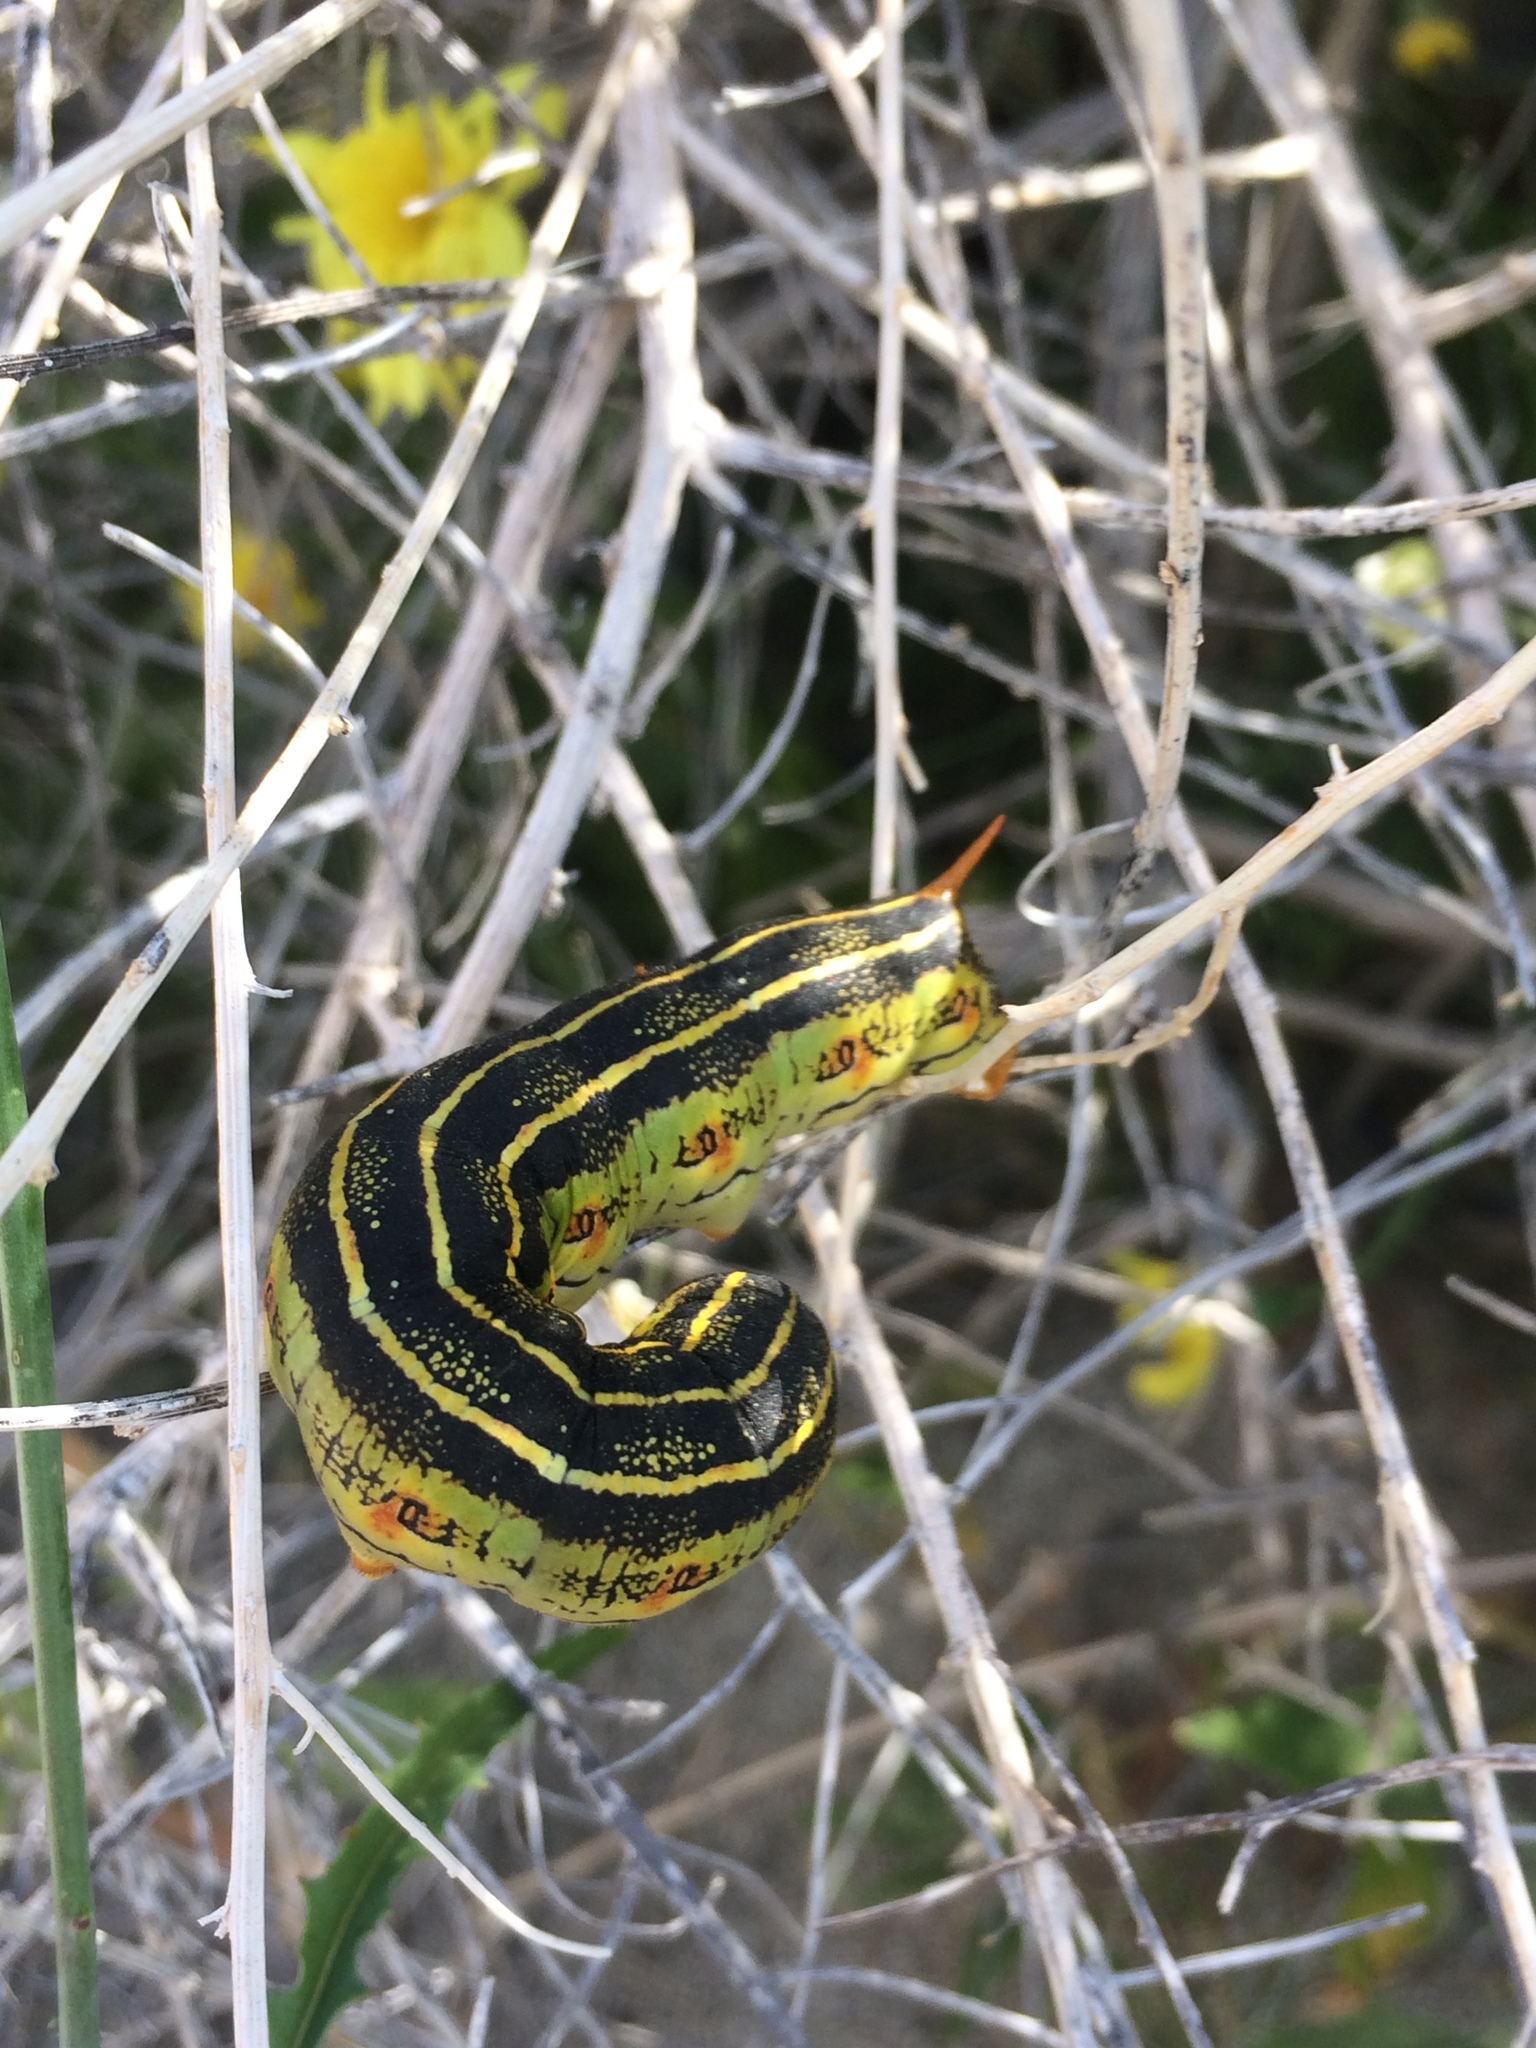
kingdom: Animalia
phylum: Arthropoda
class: Insecta
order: Lepidoptera
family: Sphingidae
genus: Hyles
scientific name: Hyles lineata
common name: White-lined sphinx
